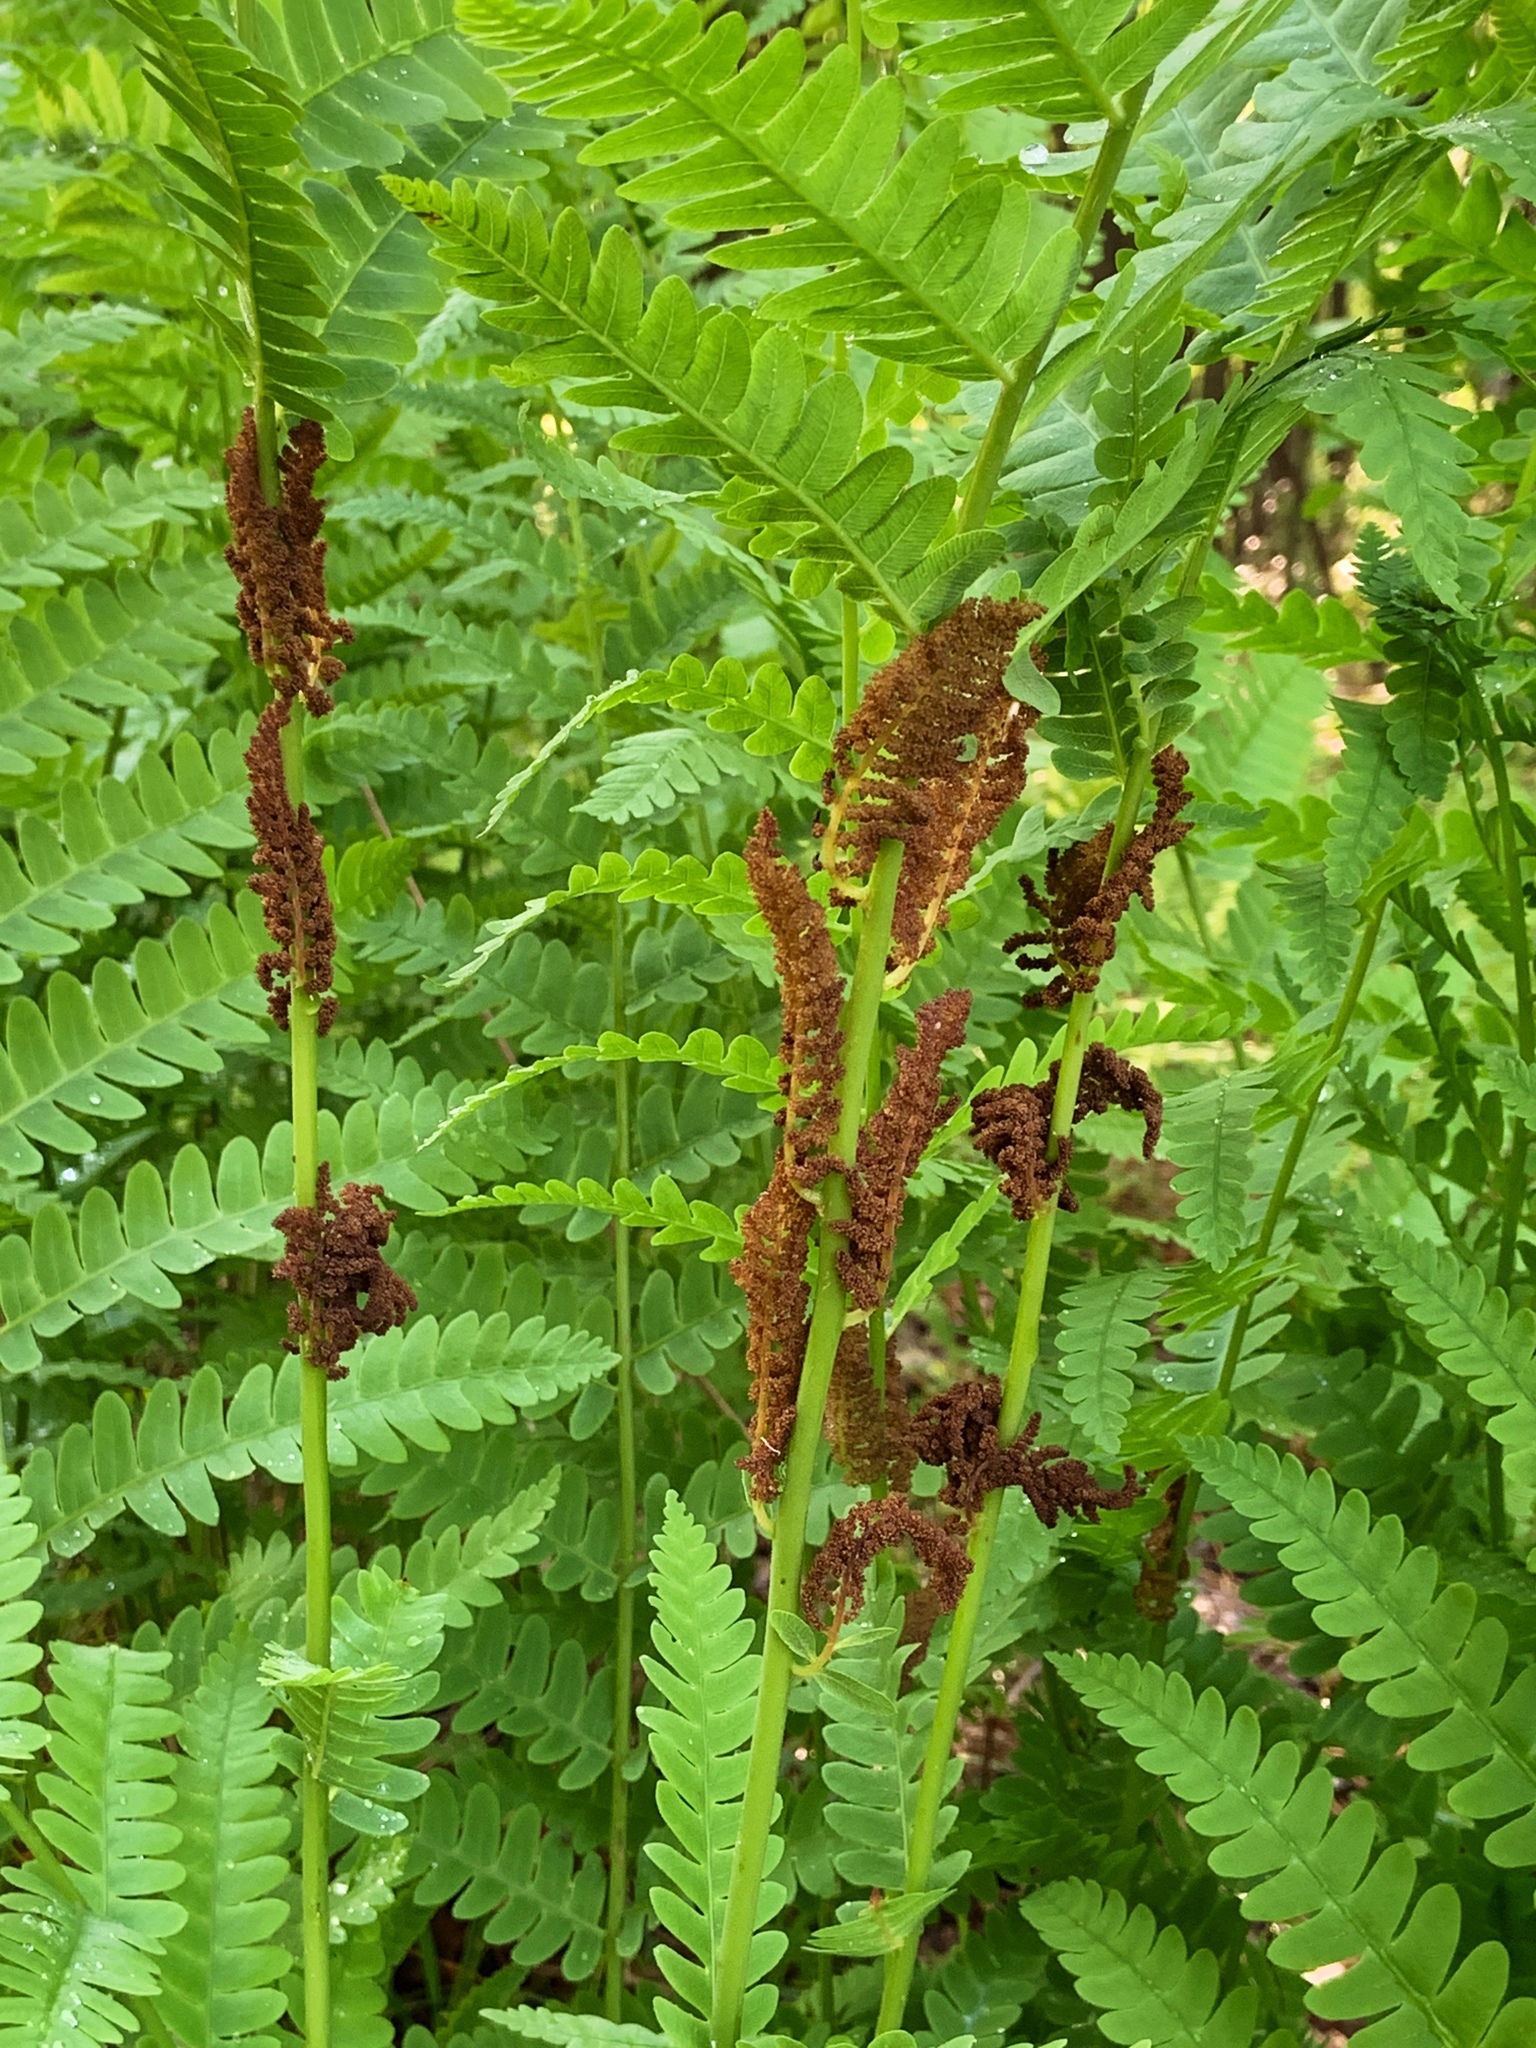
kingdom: Plantae
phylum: Tracheophyta
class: Polypodiopsida
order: Osmundales
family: Osmundaceae
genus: Claytosmunda
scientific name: Claytosmunda claytoniana
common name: Clayton's fern
